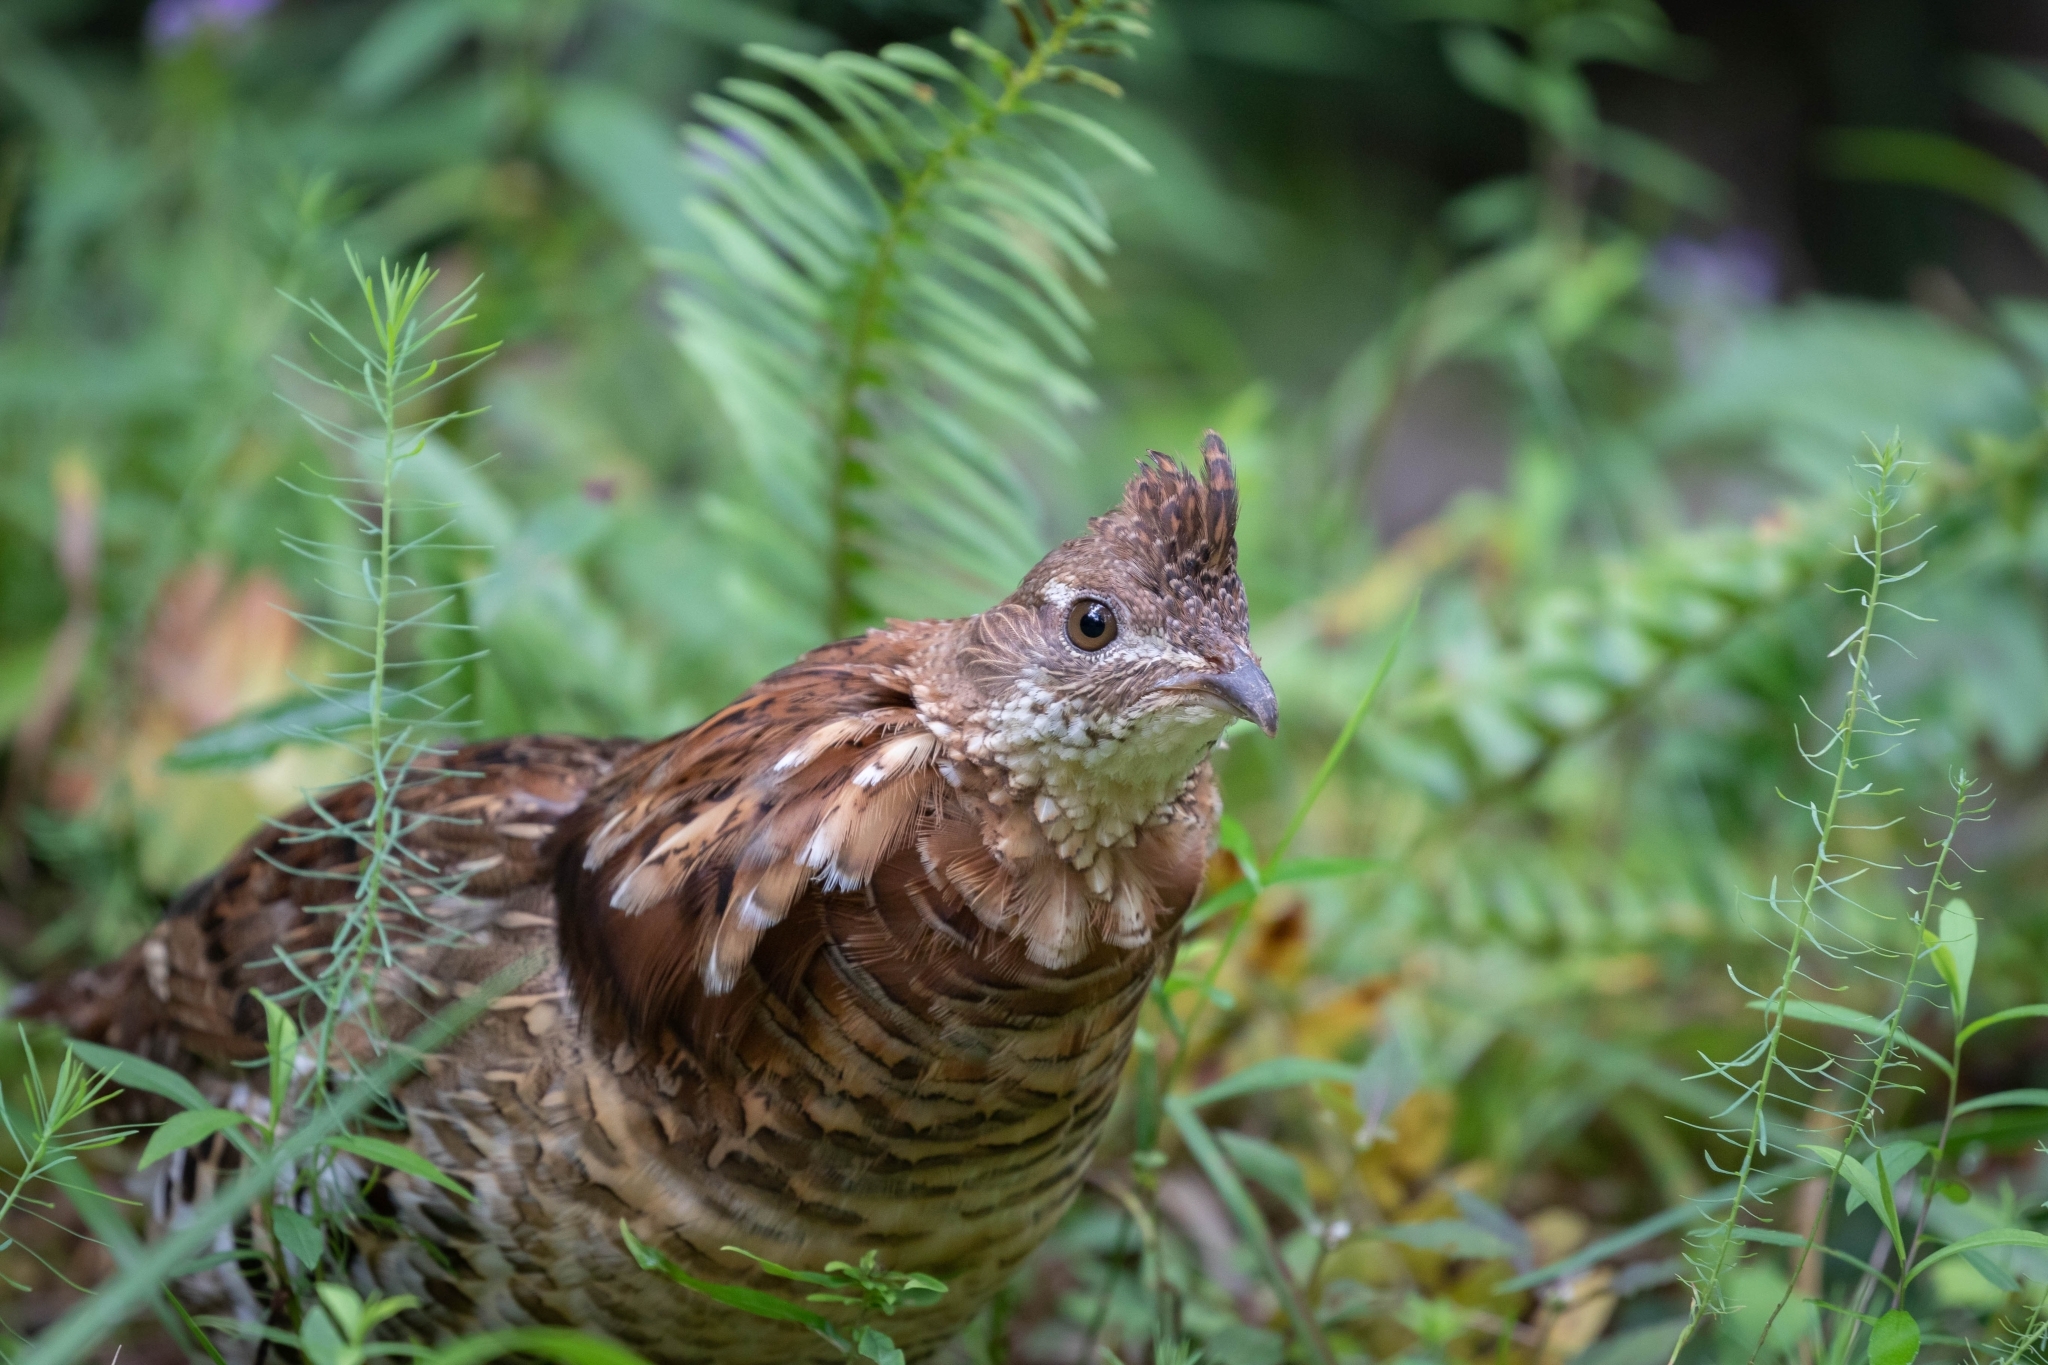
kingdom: Animalia
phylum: Chordata
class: Aves
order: Galliformes
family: Phasianidae
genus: Bonasa
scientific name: Bonasa umbellus
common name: Ruffed grouse
